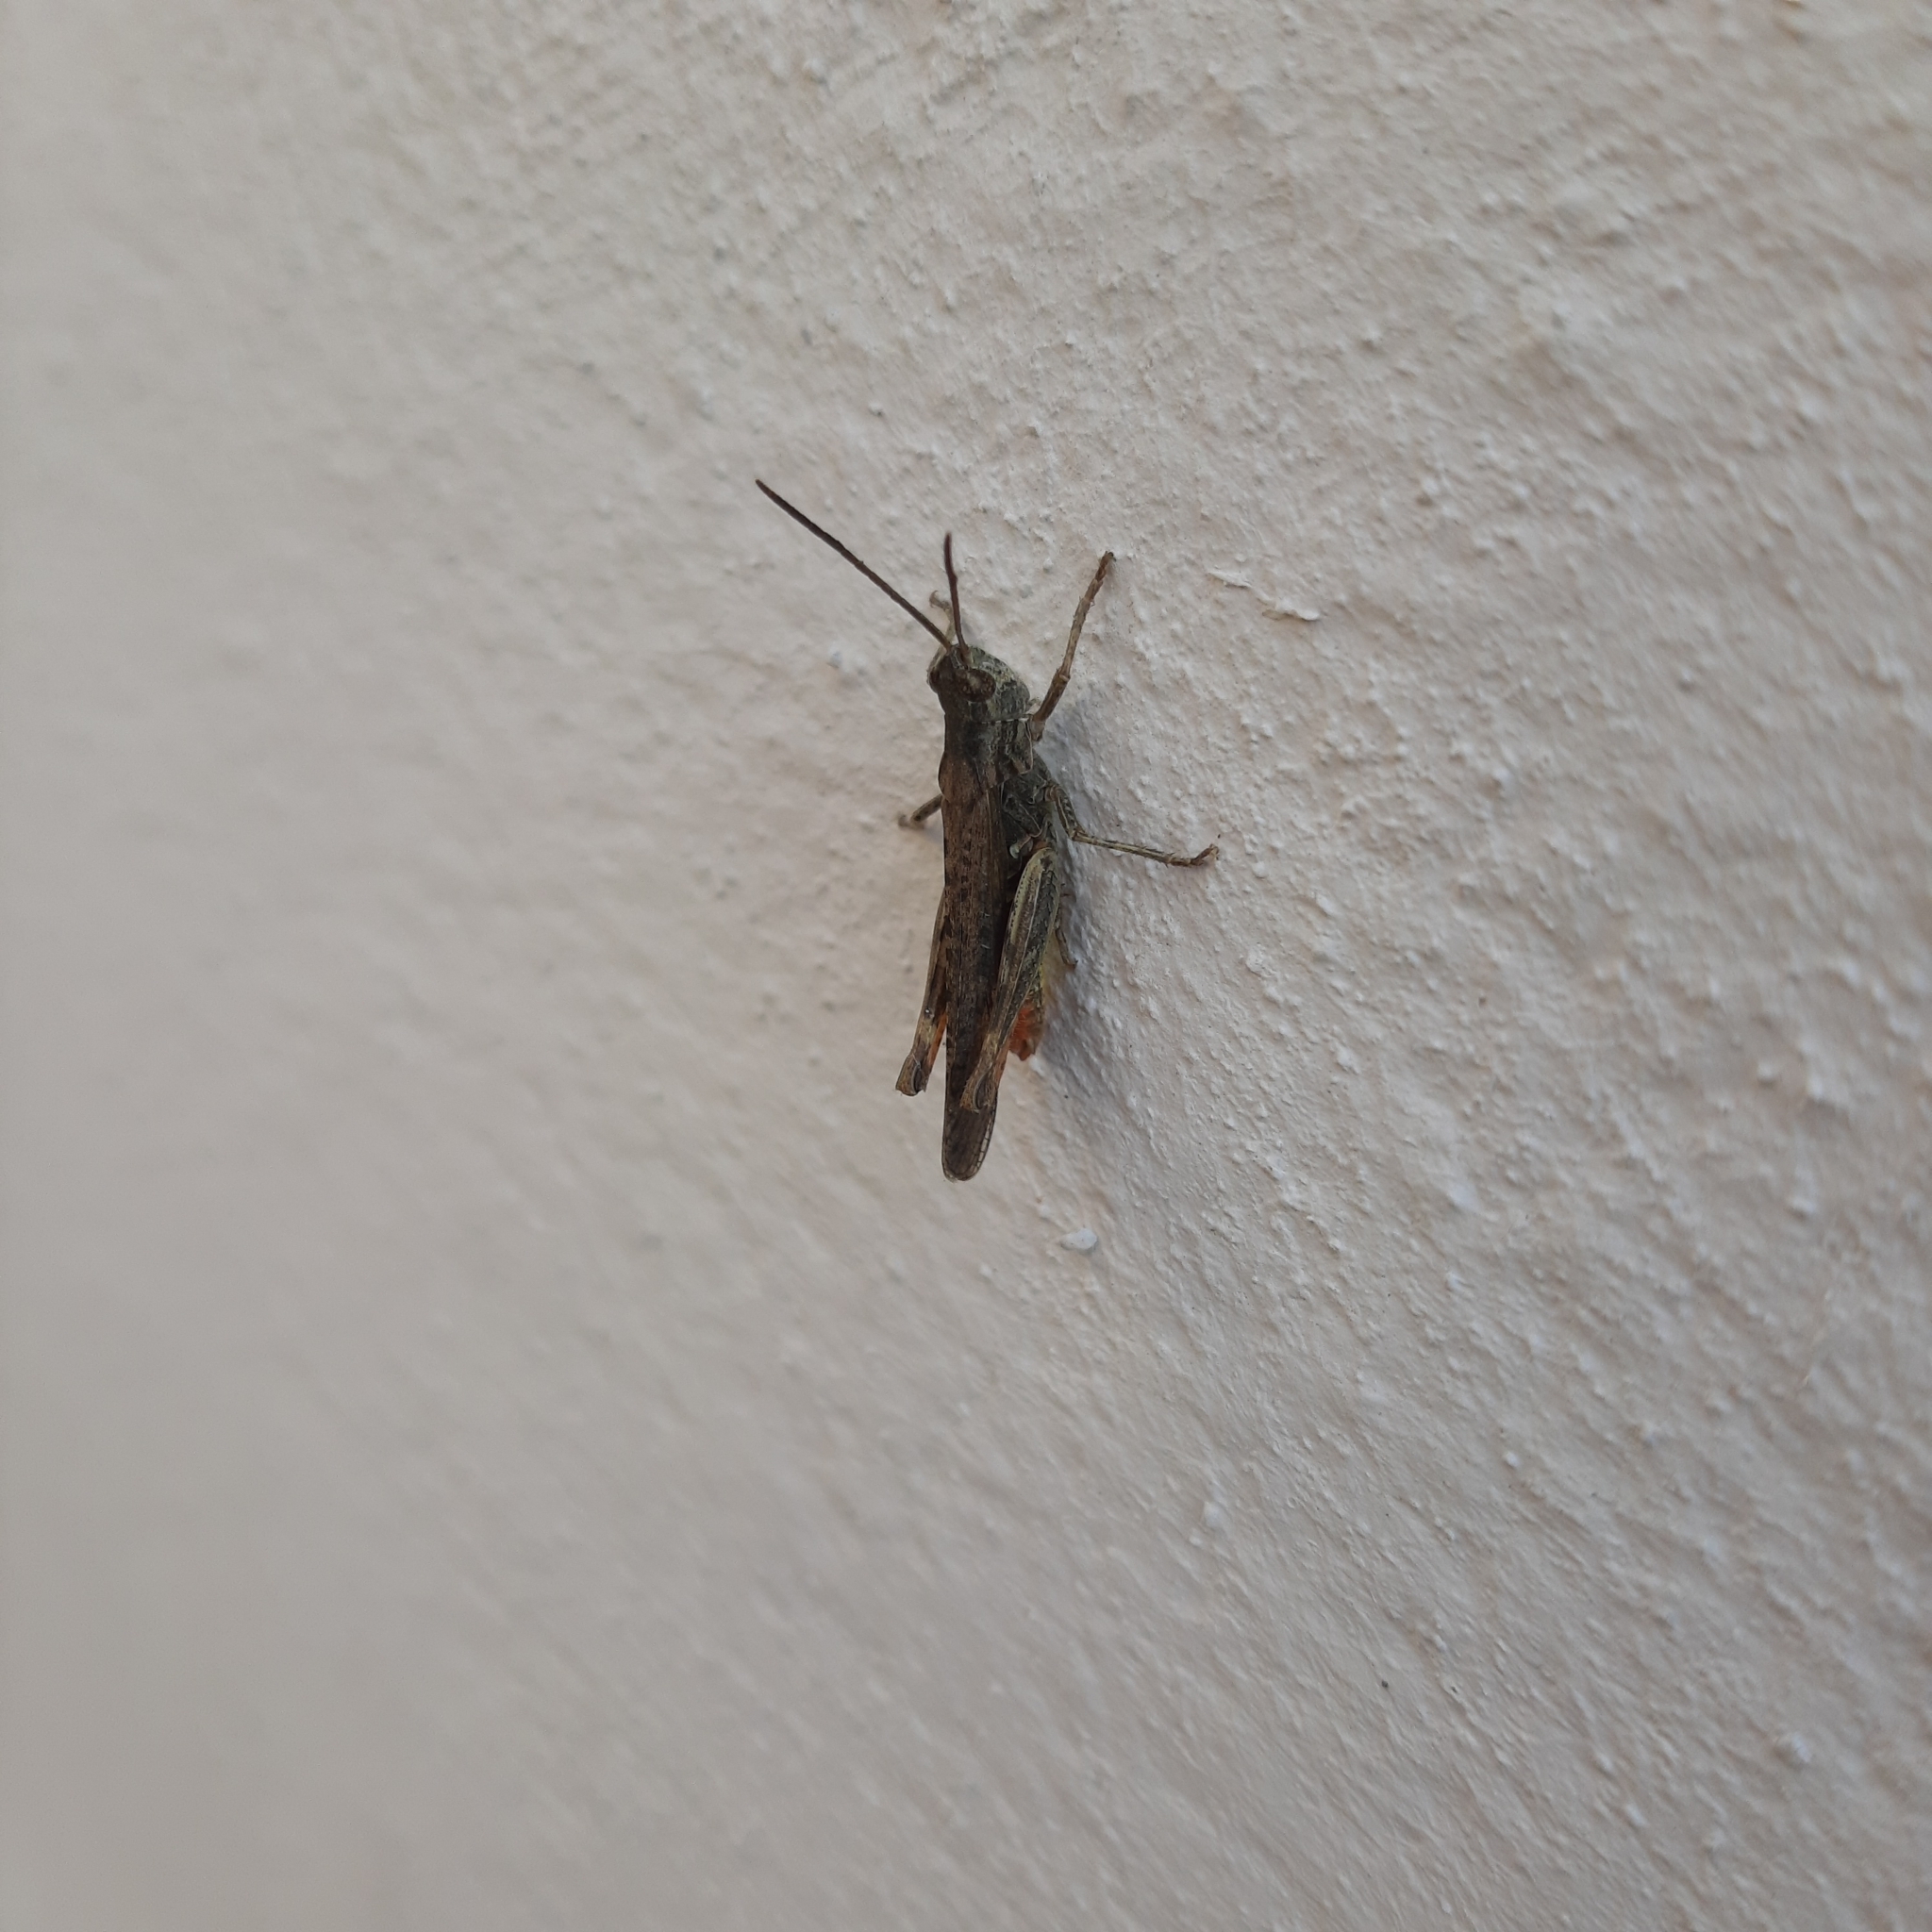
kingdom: Animalia
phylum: Arthropoda
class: Insecta
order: Orthoptera
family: Acrididae
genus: Chorthippus
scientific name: Chorthippus brunneus
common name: Field grasshopper
